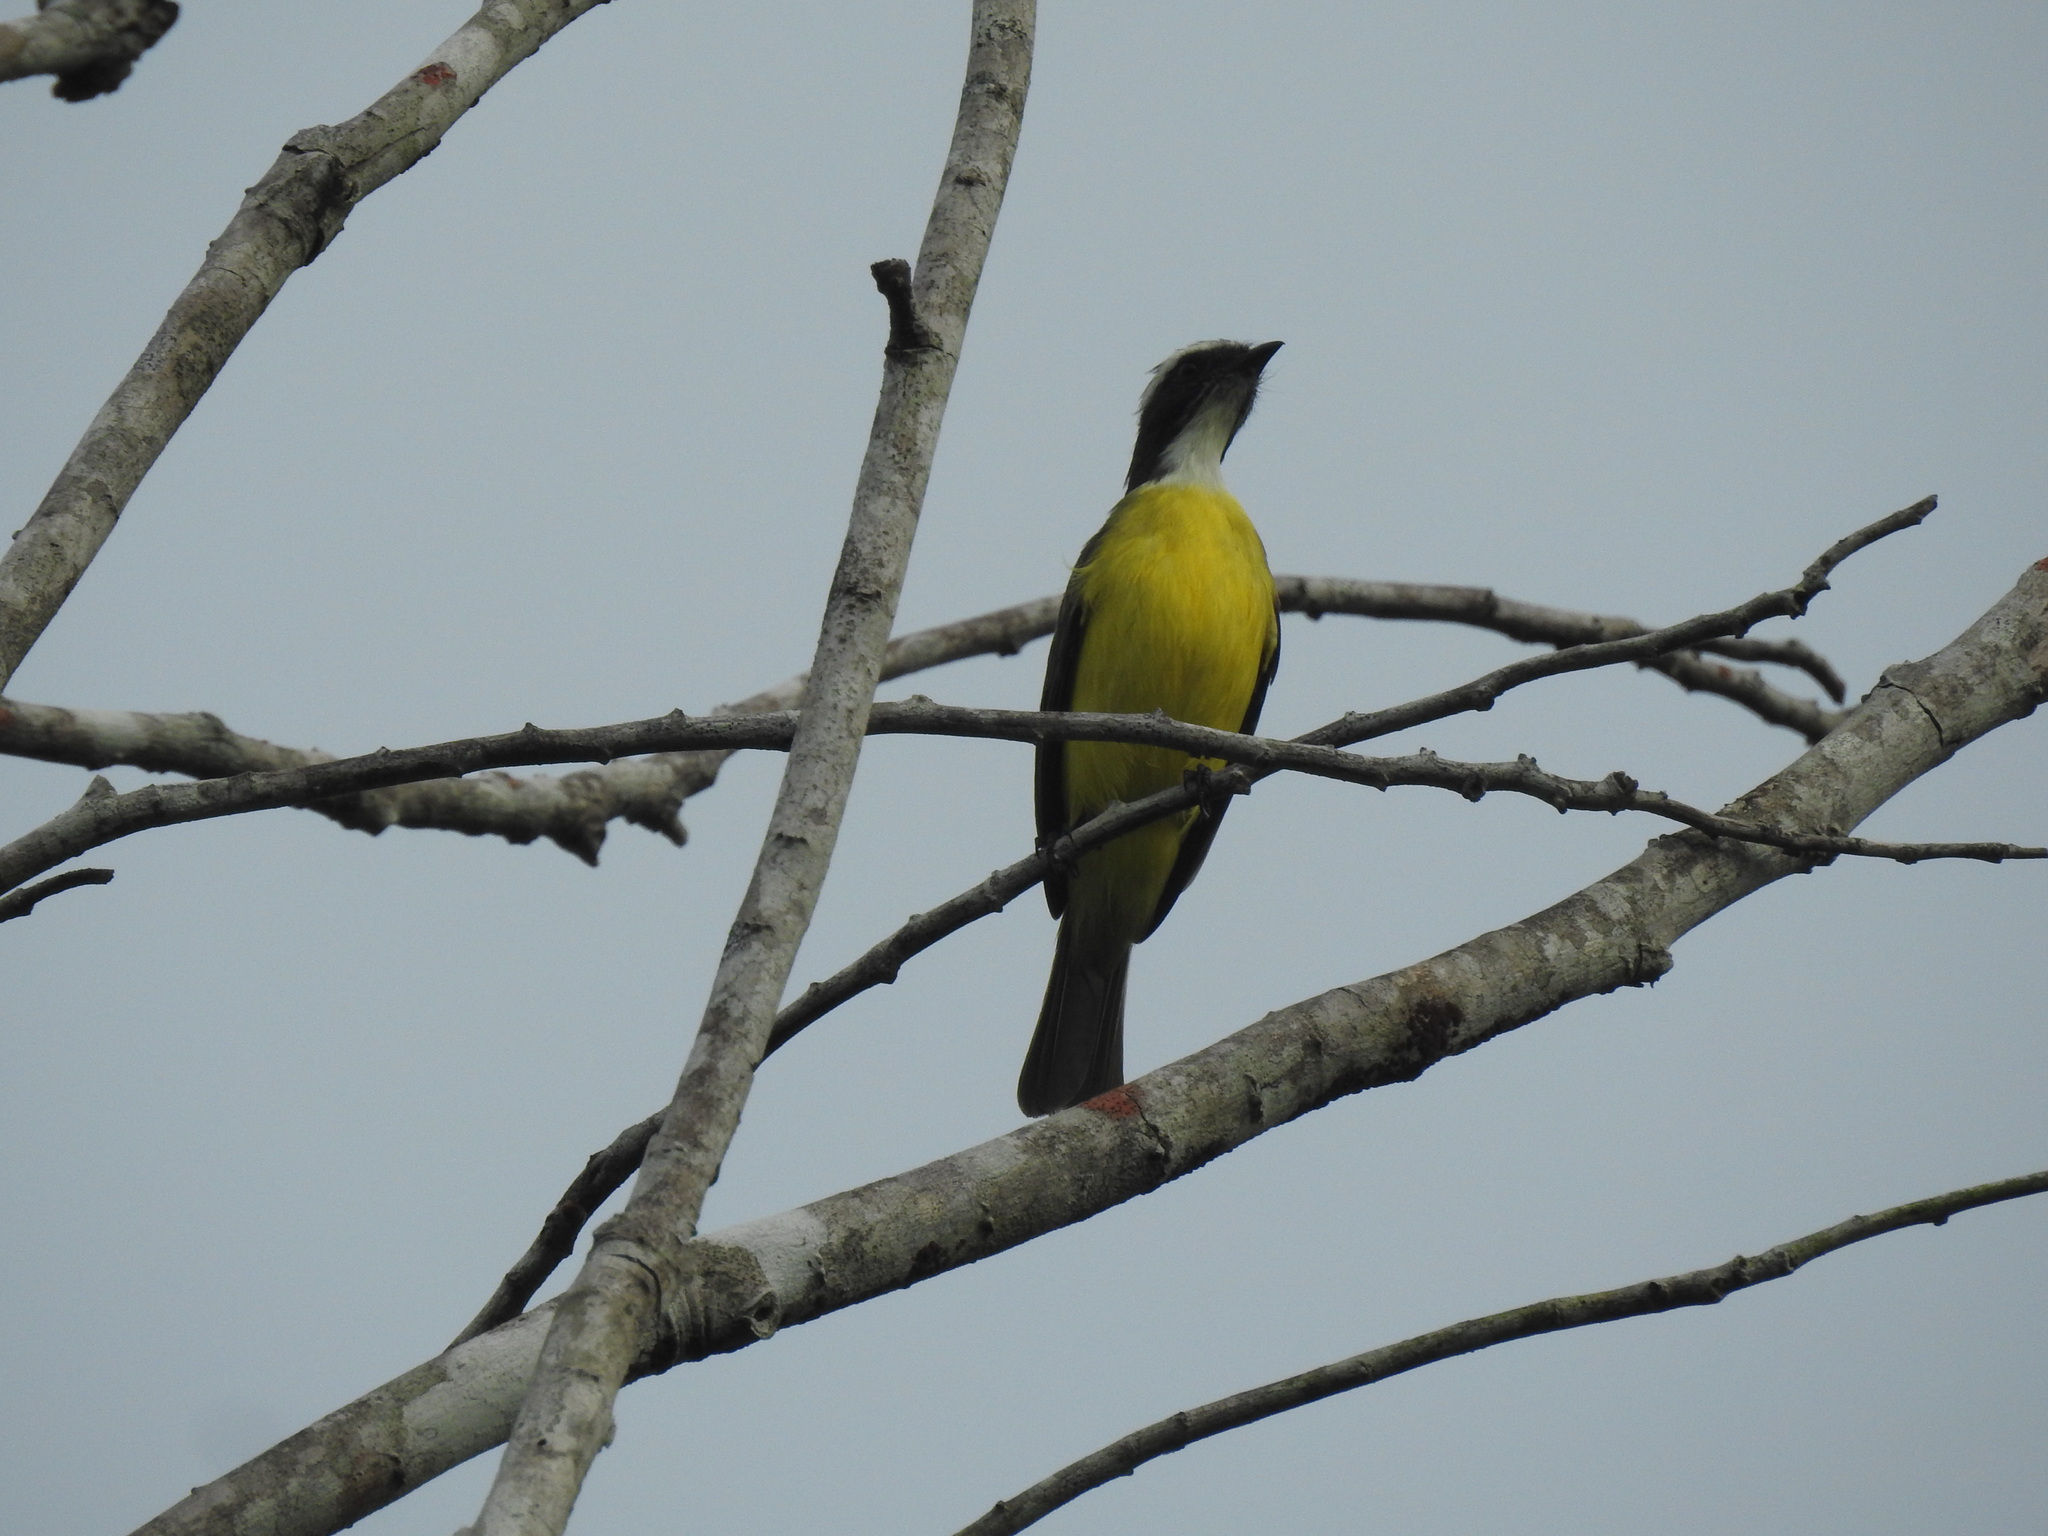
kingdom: Animalia
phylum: Chordata
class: Aves
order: Passeriformes
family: Tyrannidae
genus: Myiozetetes
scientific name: Myiozetetes similis
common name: Social flycatcher
